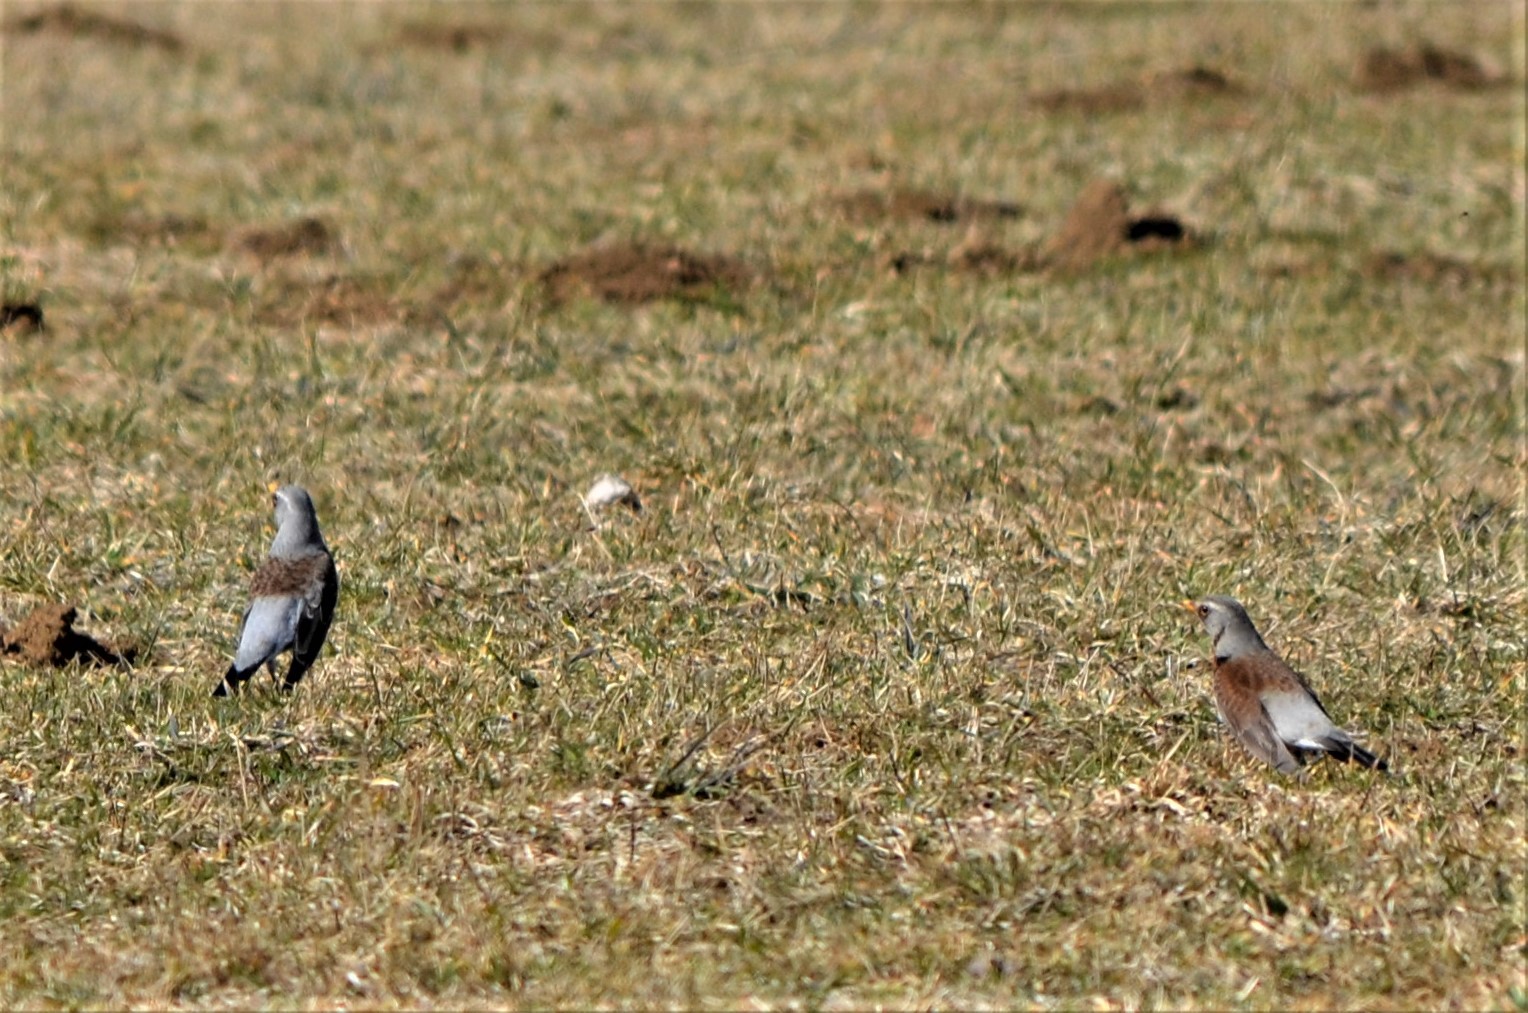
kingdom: Animalia
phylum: Chordata
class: Aves
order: Passeriformes
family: Turdidae
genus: Turdus
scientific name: Turdus pilaris
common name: Fieldfare
